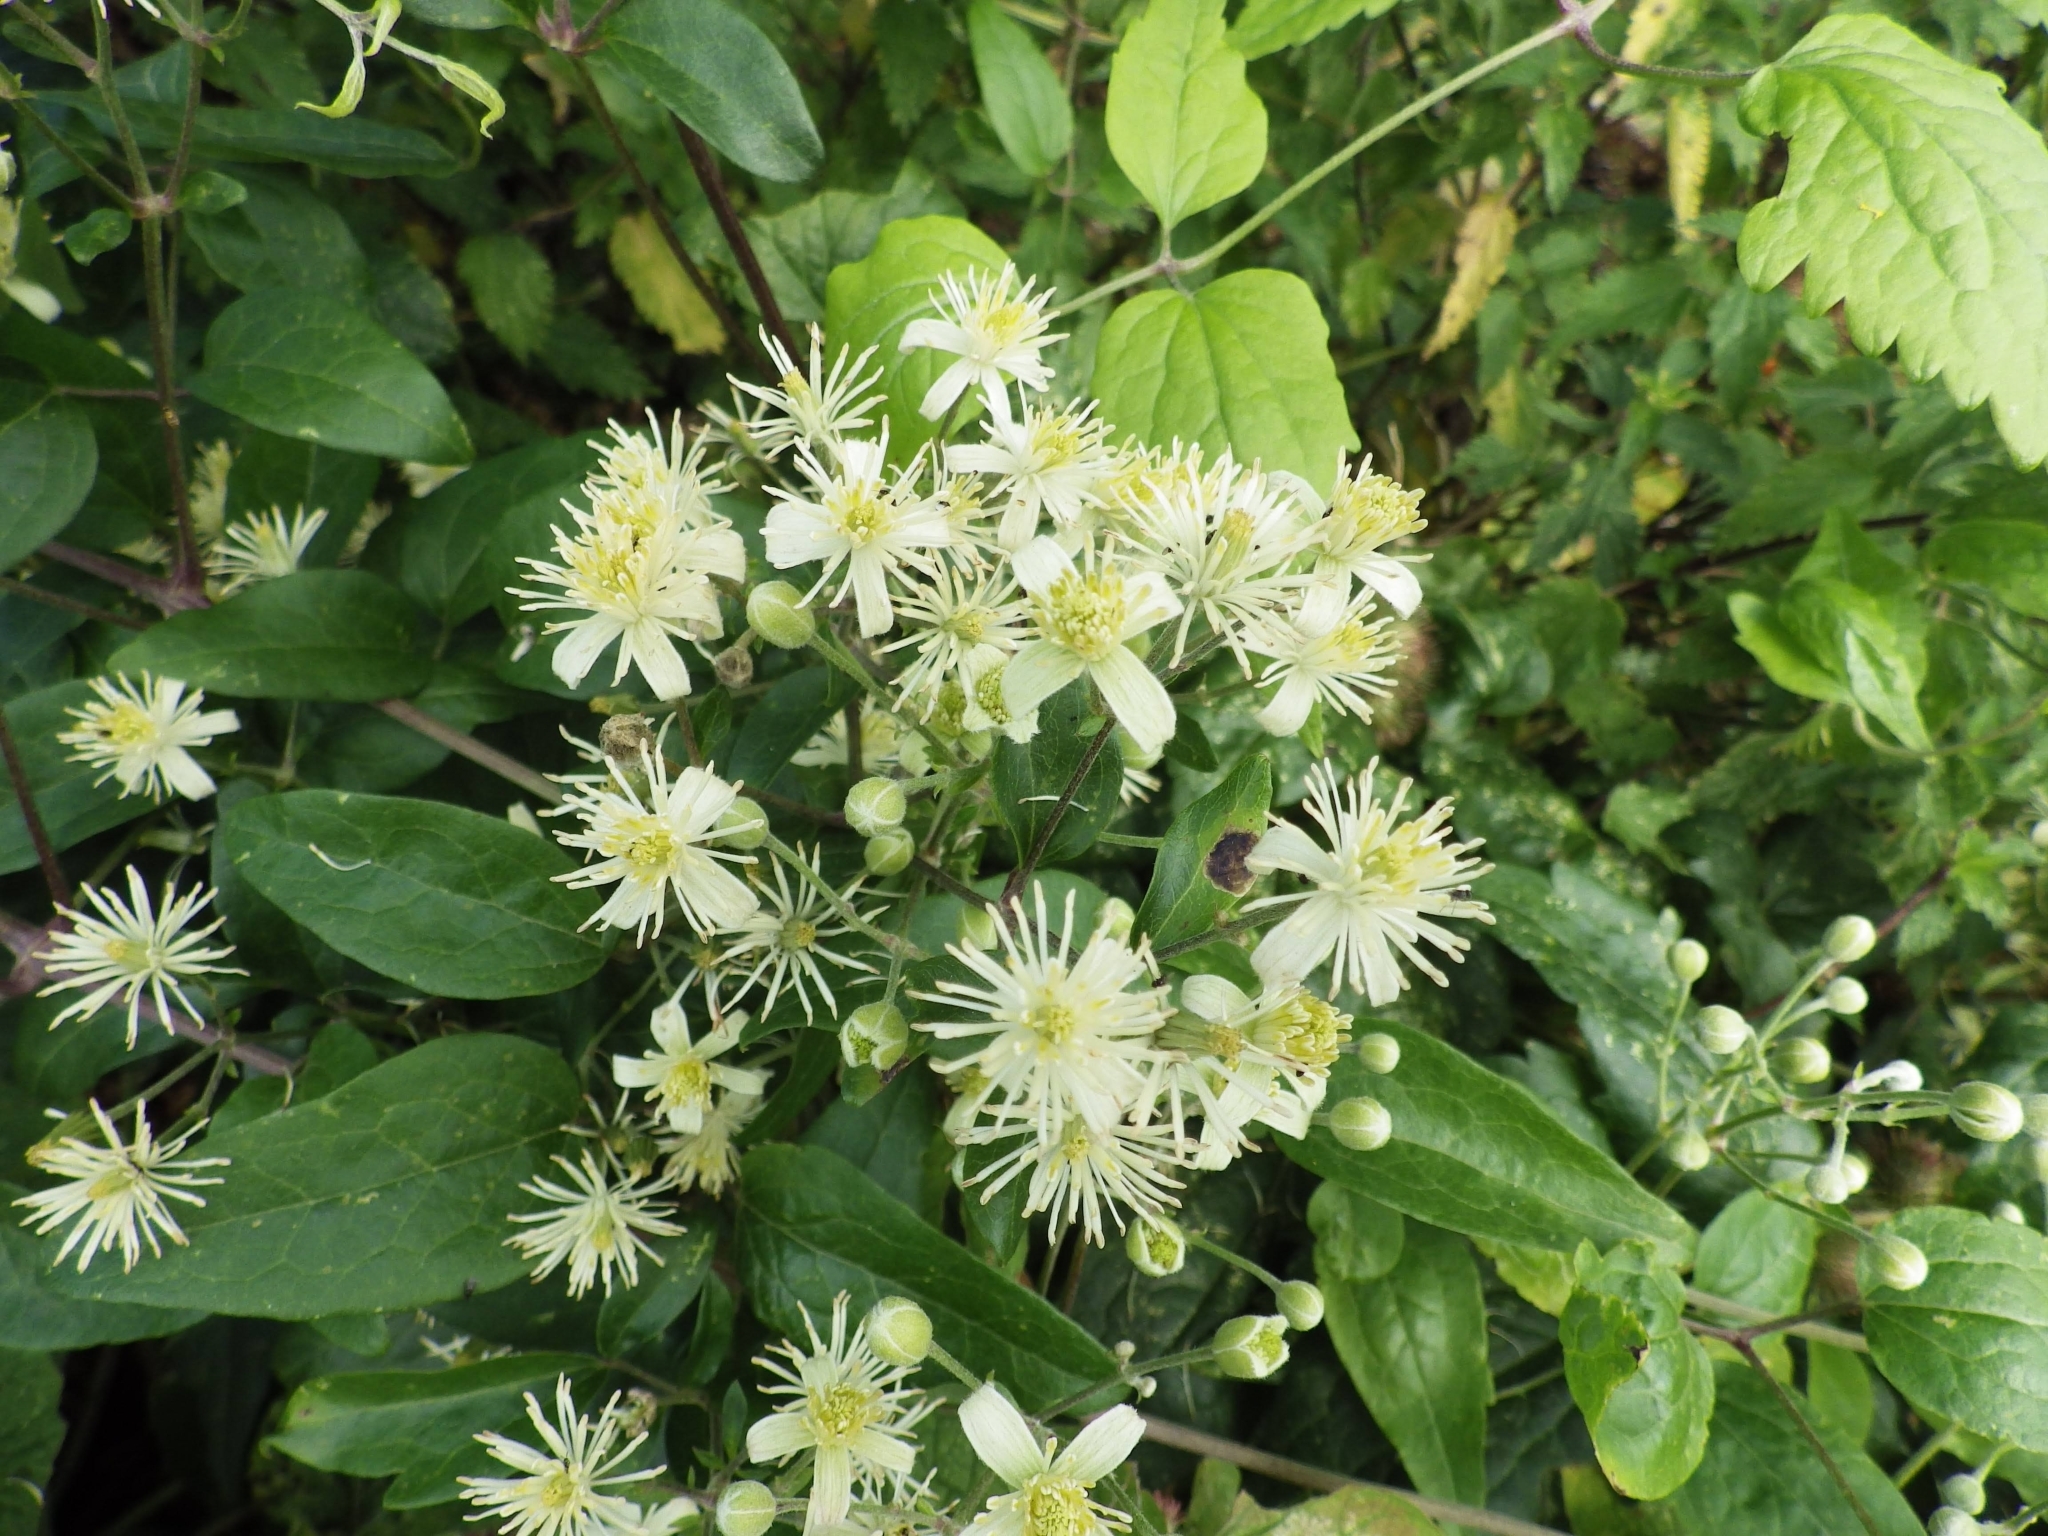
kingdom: Plantae
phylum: Tracheophyta
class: Magnoliopsida
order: Ranunculales
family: Ranunculaceae
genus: Clematis
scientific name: Clematis vitalba
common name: Evergreen clematis
